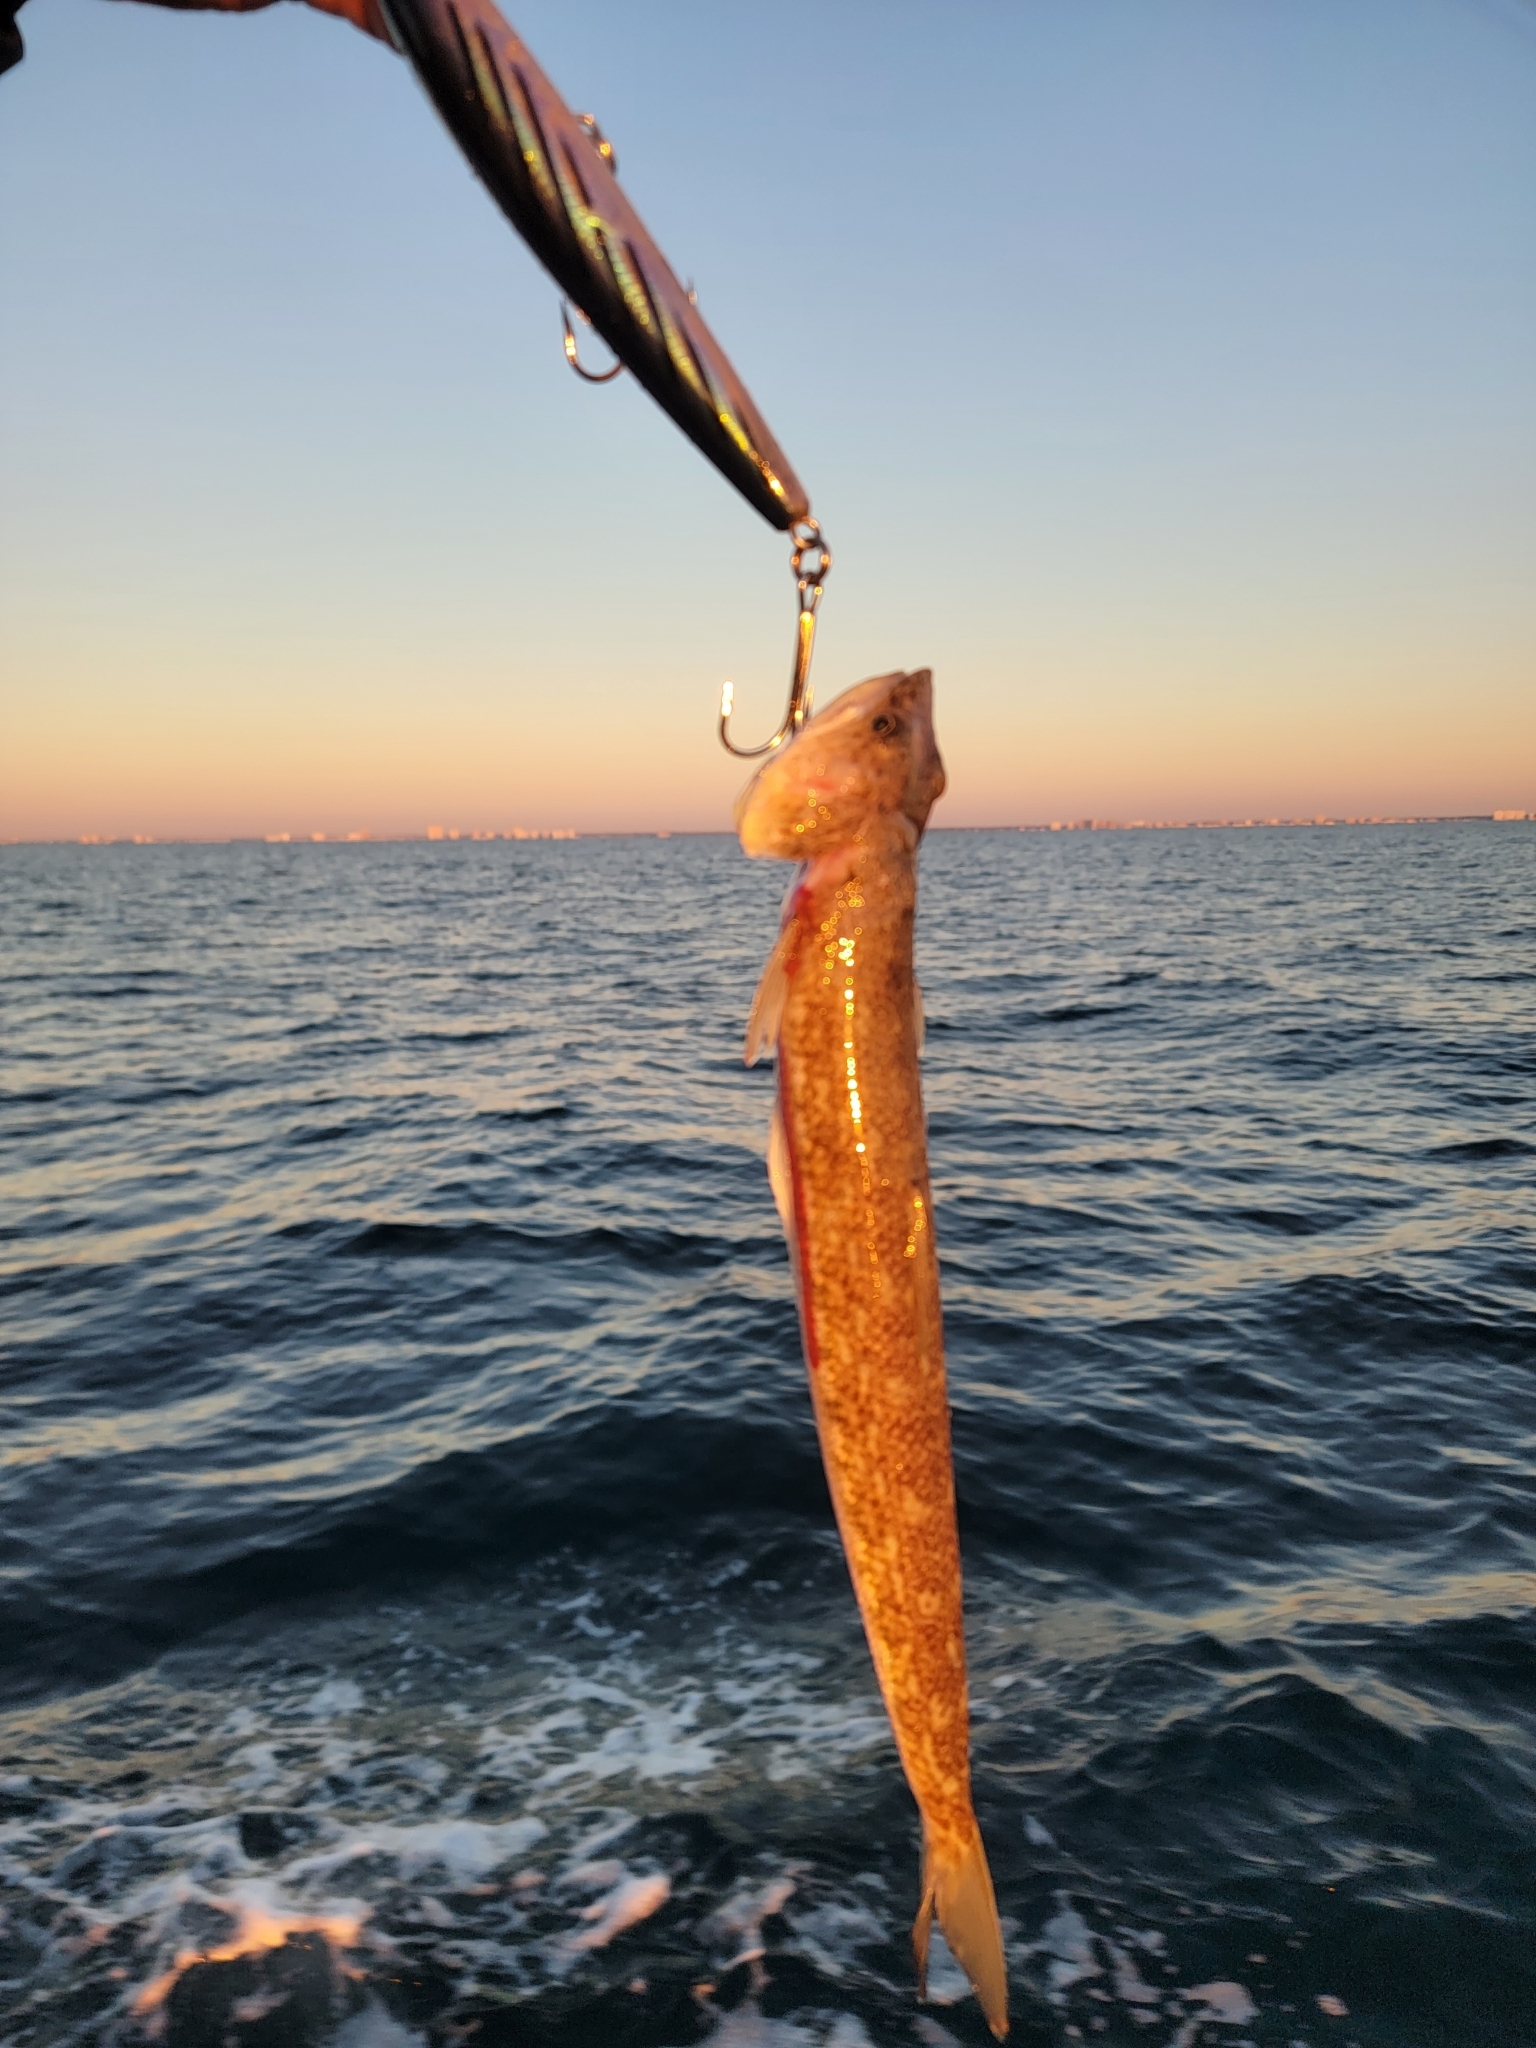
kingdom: Animalia
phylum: Chordata
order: Aulopiformes
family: Synodontidae
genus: Synodus
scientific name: Synodus foetens
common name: Inshore lizardfish
